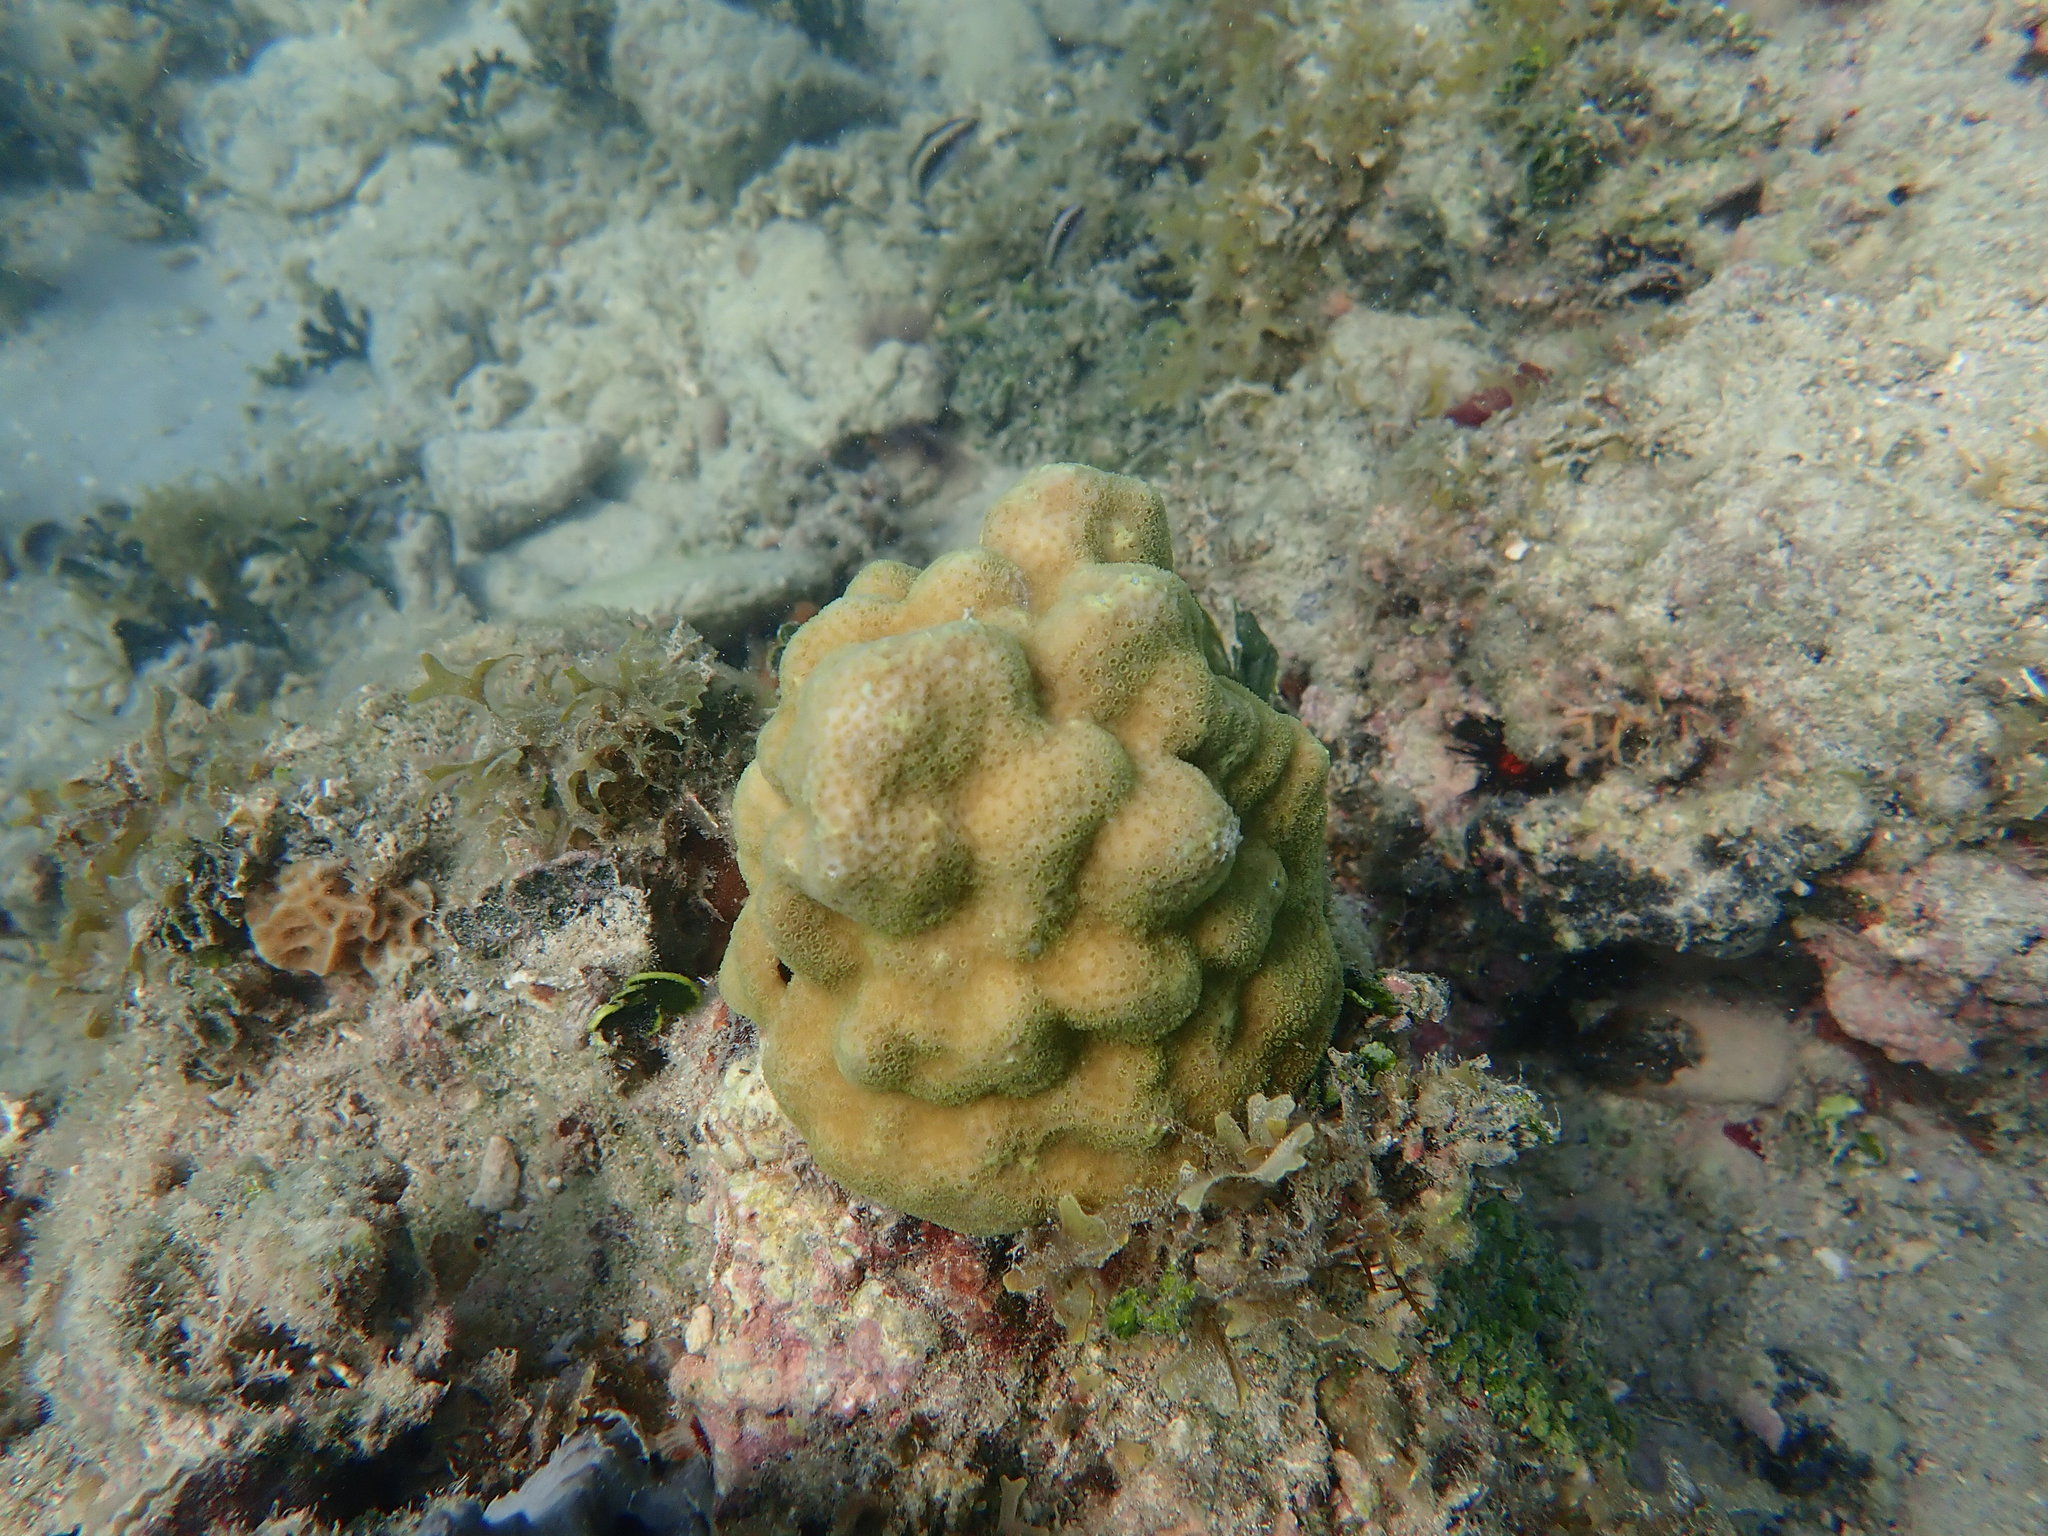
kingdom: Animalia
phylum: Cnidaria
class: Anthozoa
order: Scleractinia
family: Poritidae
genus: Porites
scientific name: Porites astreoides
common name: Mustard hill coral
